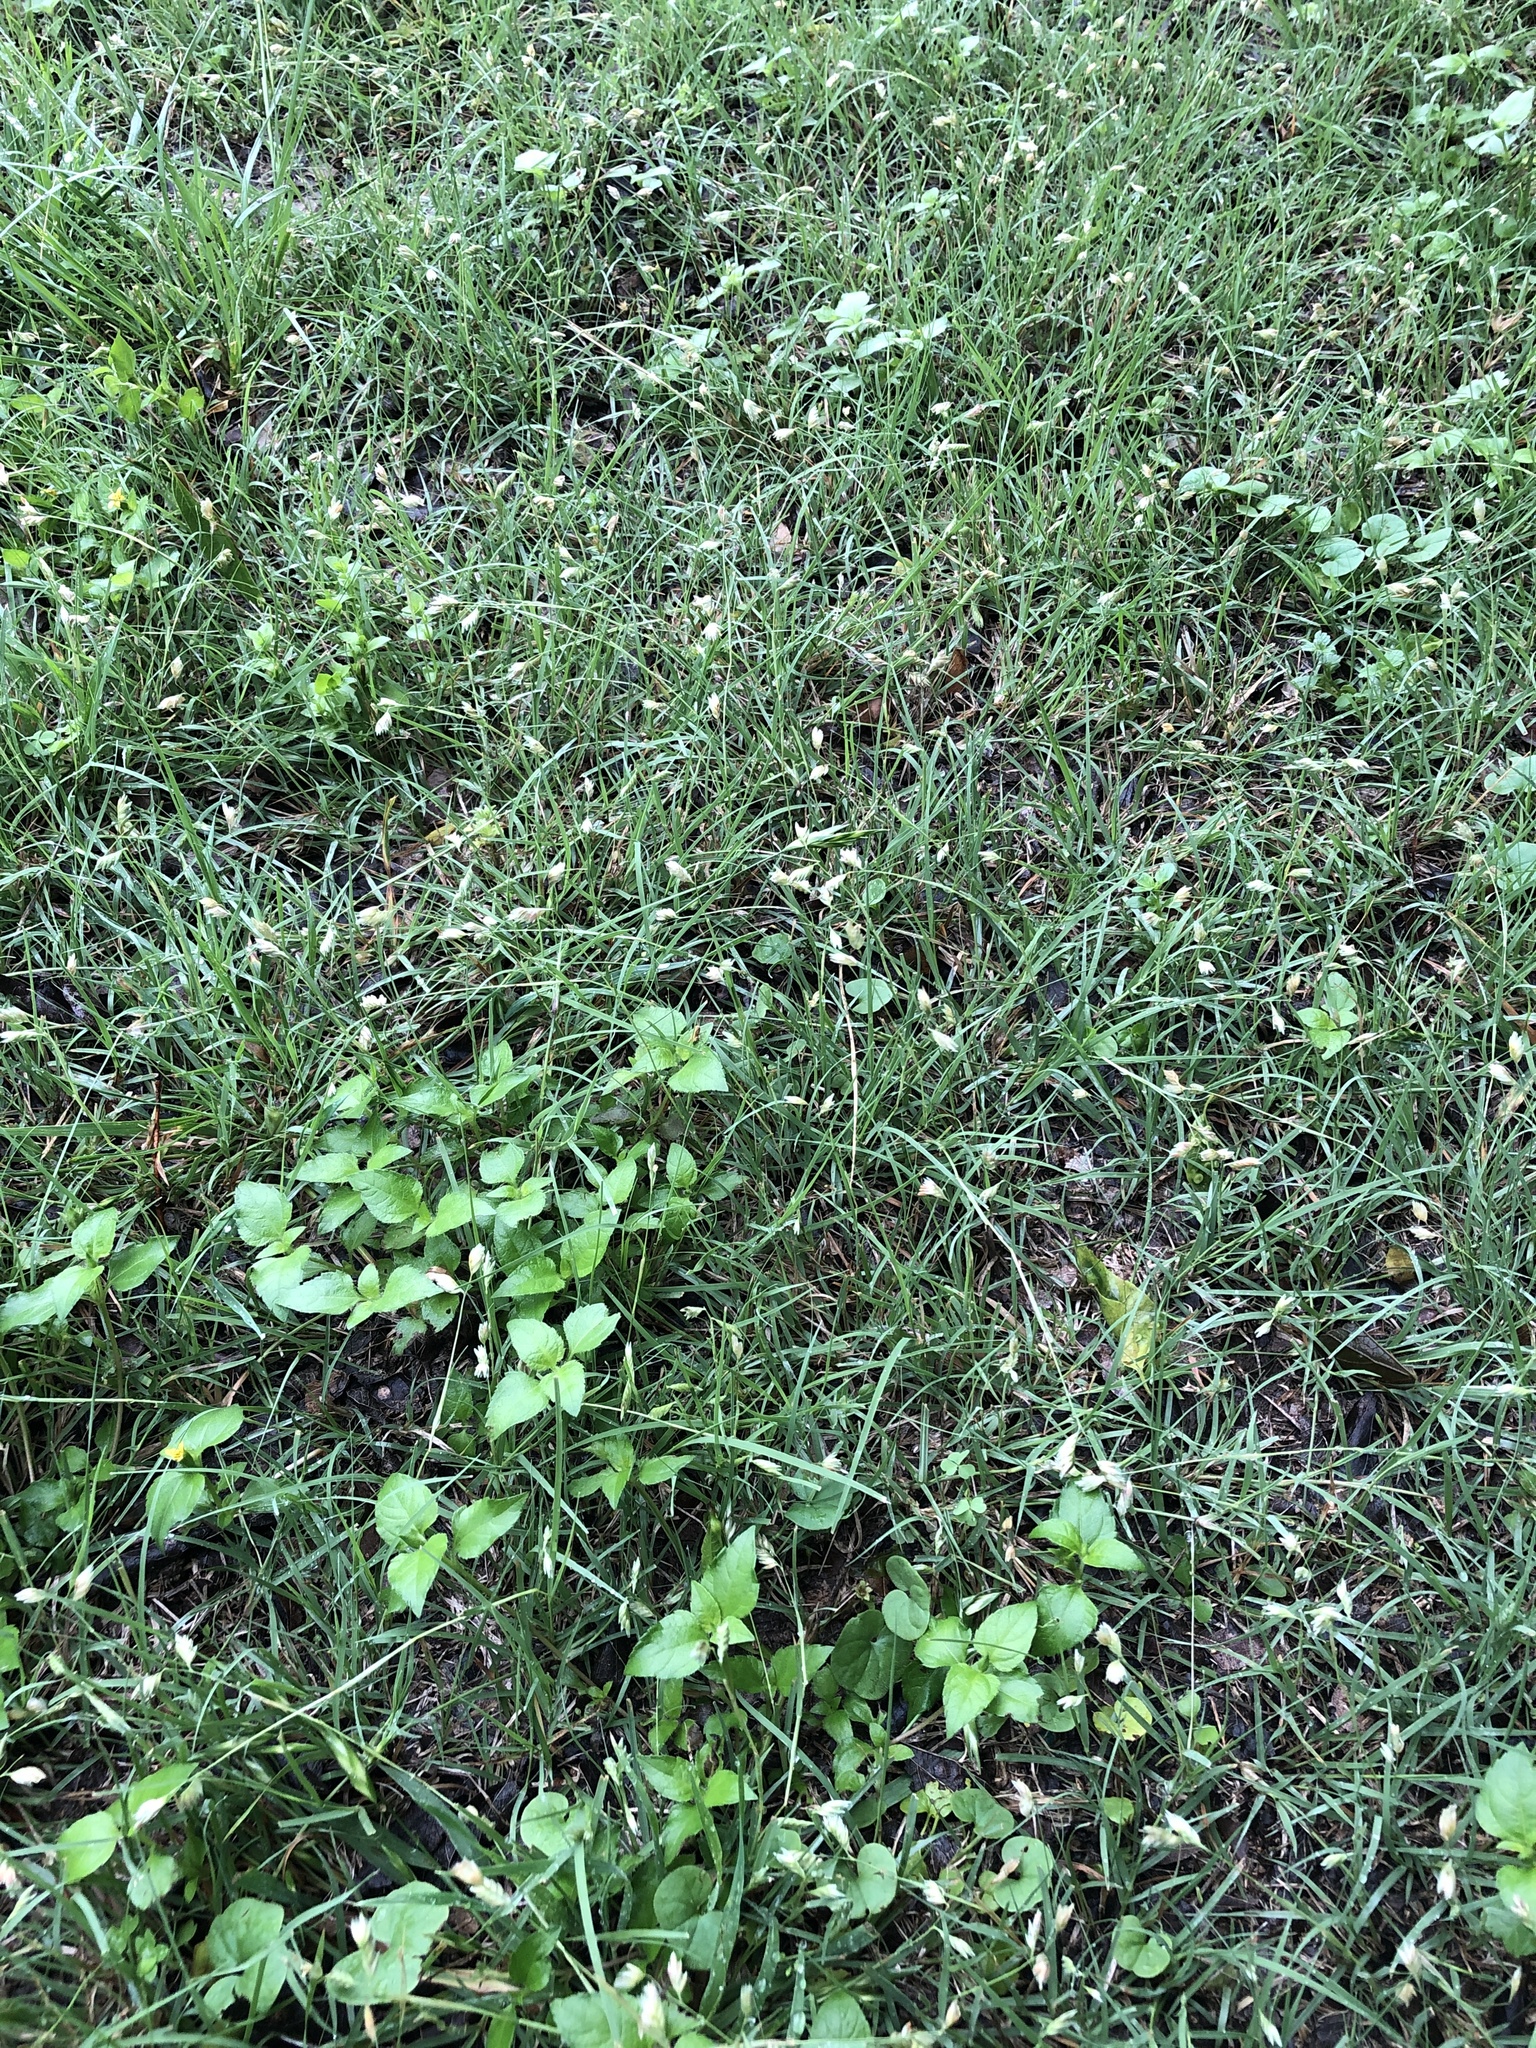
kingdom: Plantae
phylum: Tracheophyta
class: Liliopsida
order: Poales
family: Poaceae
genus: Bouteloua
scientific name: Bouteloua dactyloides
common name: Buffalo grass
